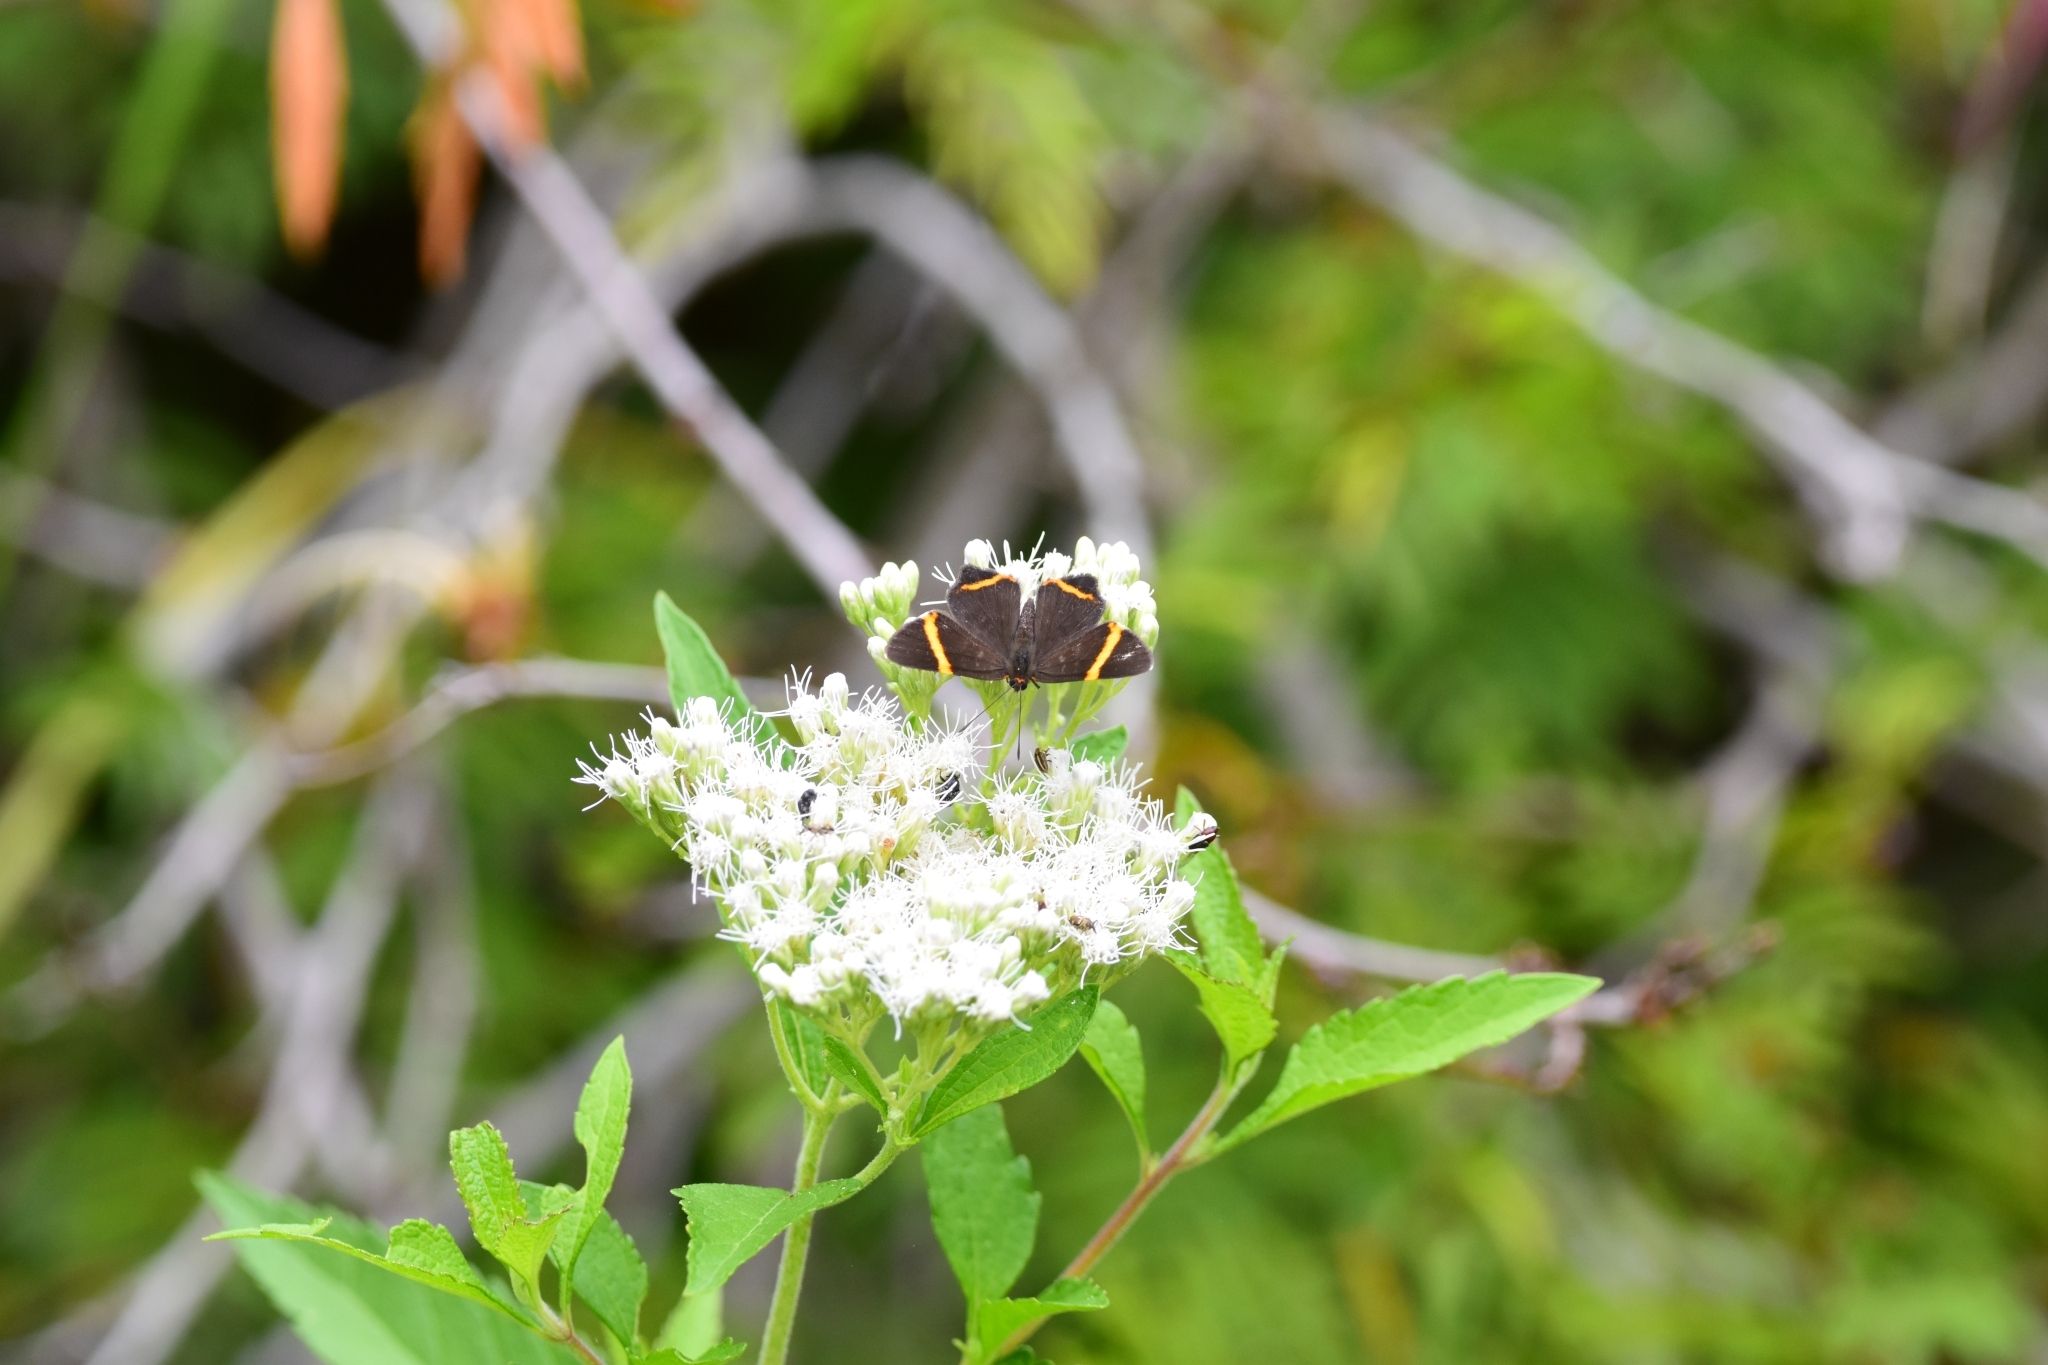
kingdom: Animalia
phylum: Arthropoda
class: Insecta
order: Lepidoptera
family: Riodinidae
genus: Riodina
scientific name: Riodina lysippoides
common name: Little dancer metalmark
